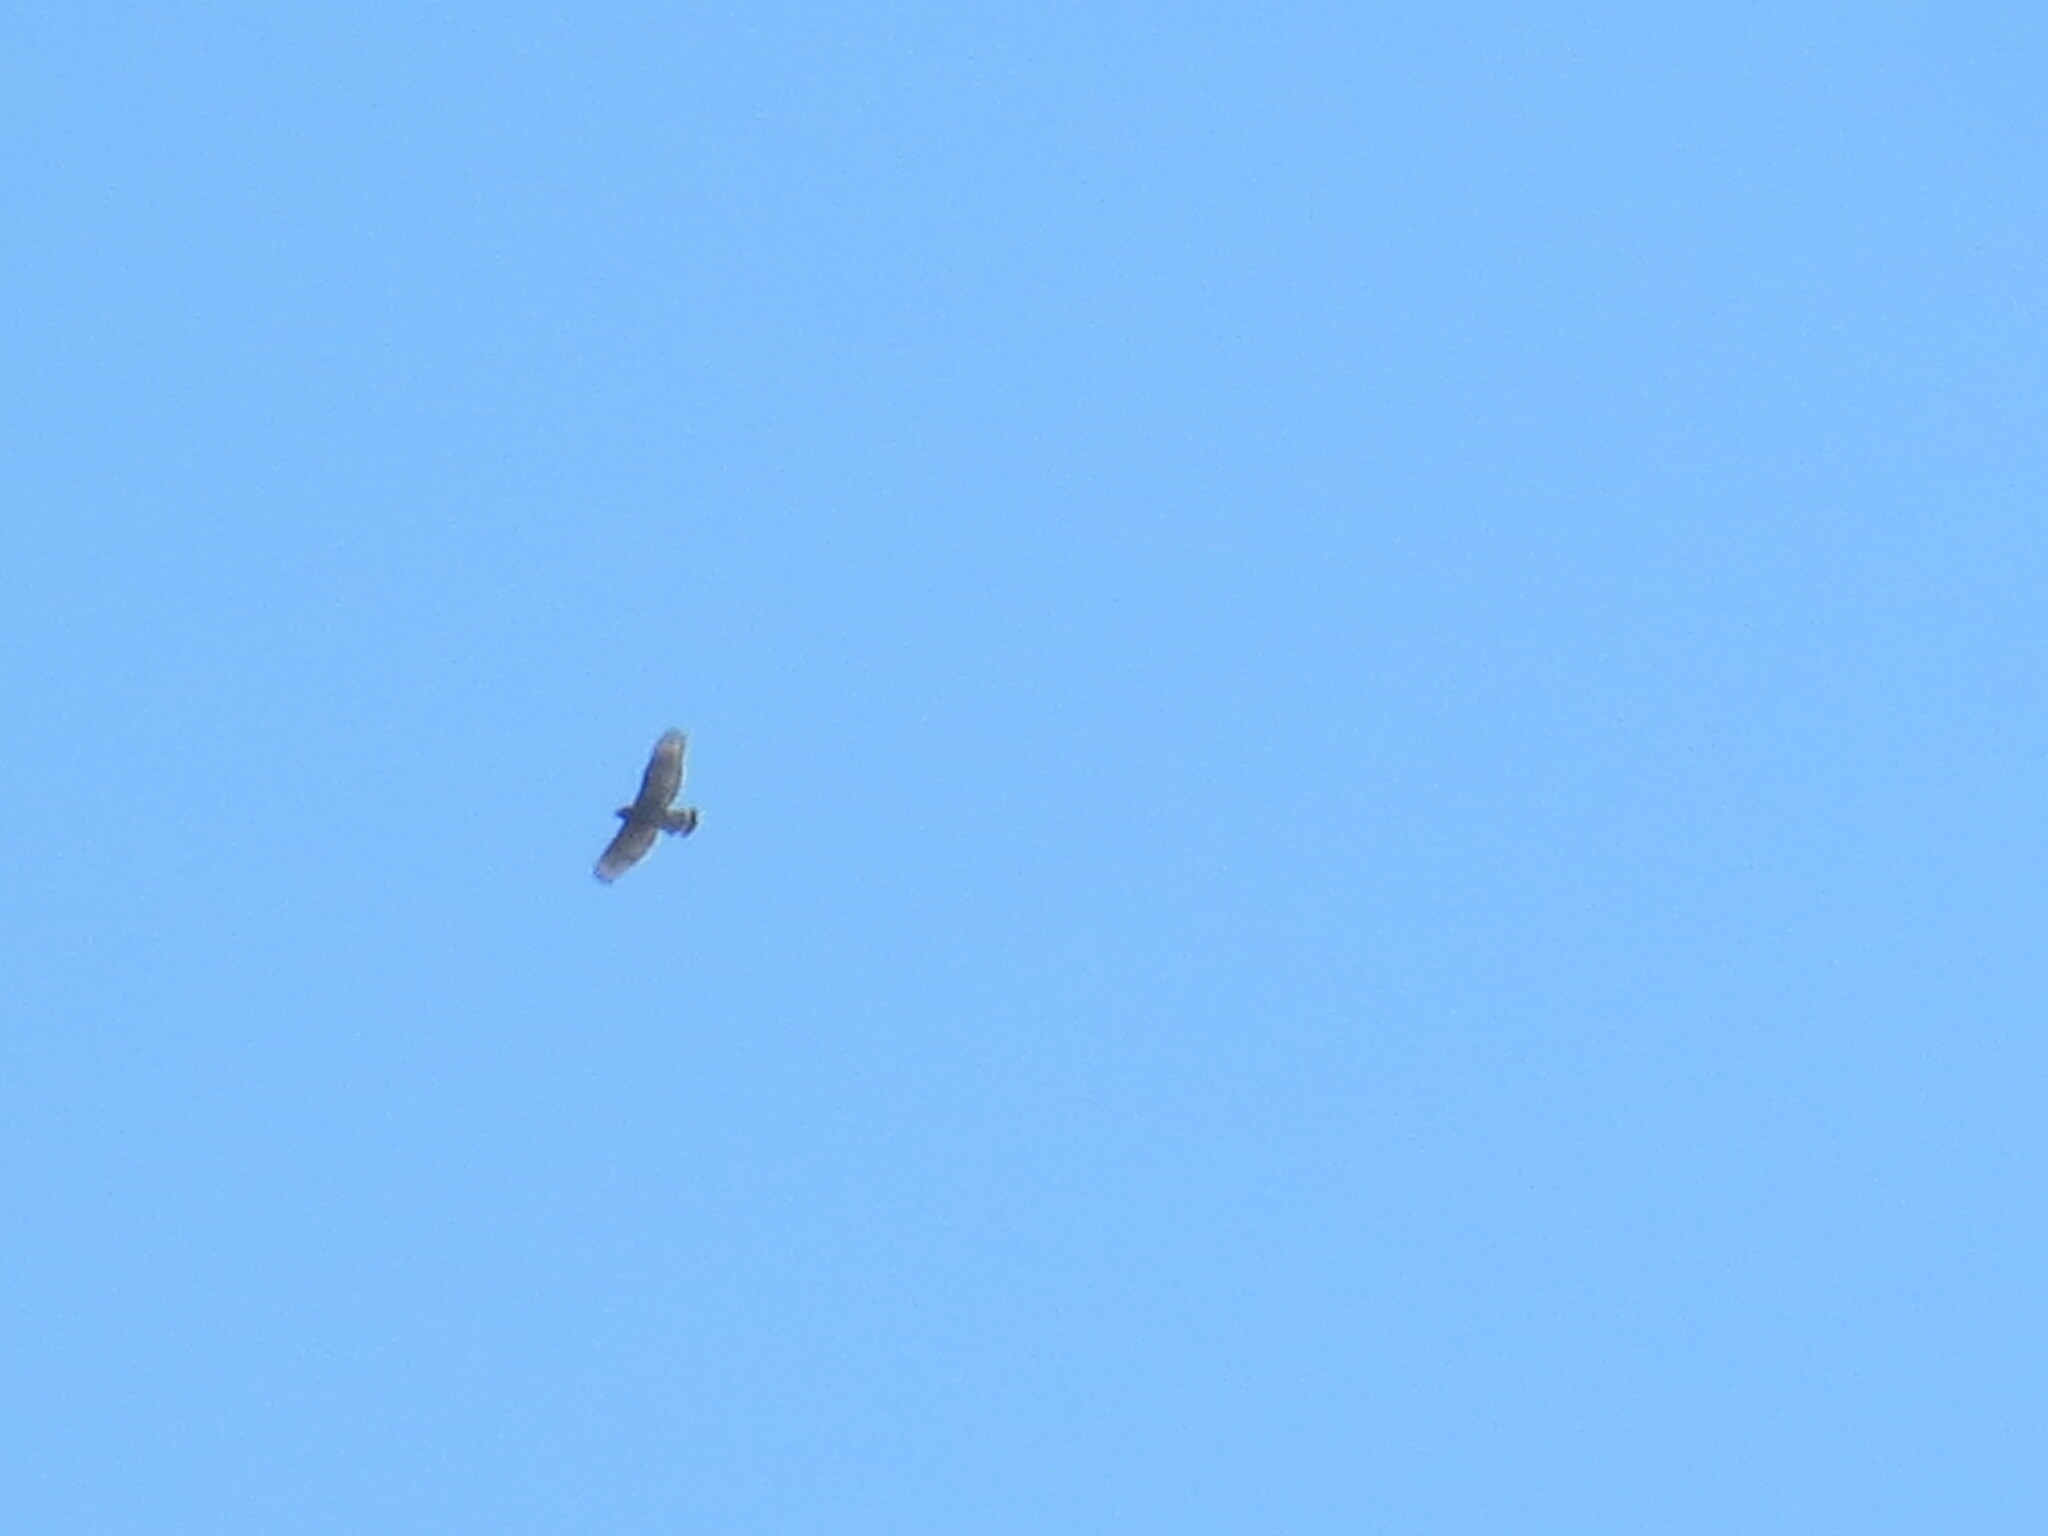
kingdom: Animalia
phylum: Chordata
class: Aves
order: Accipitriformes
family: Accipitridae
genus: Buteo
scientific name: Buteo lineatus
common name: Red-shouldered hawk
